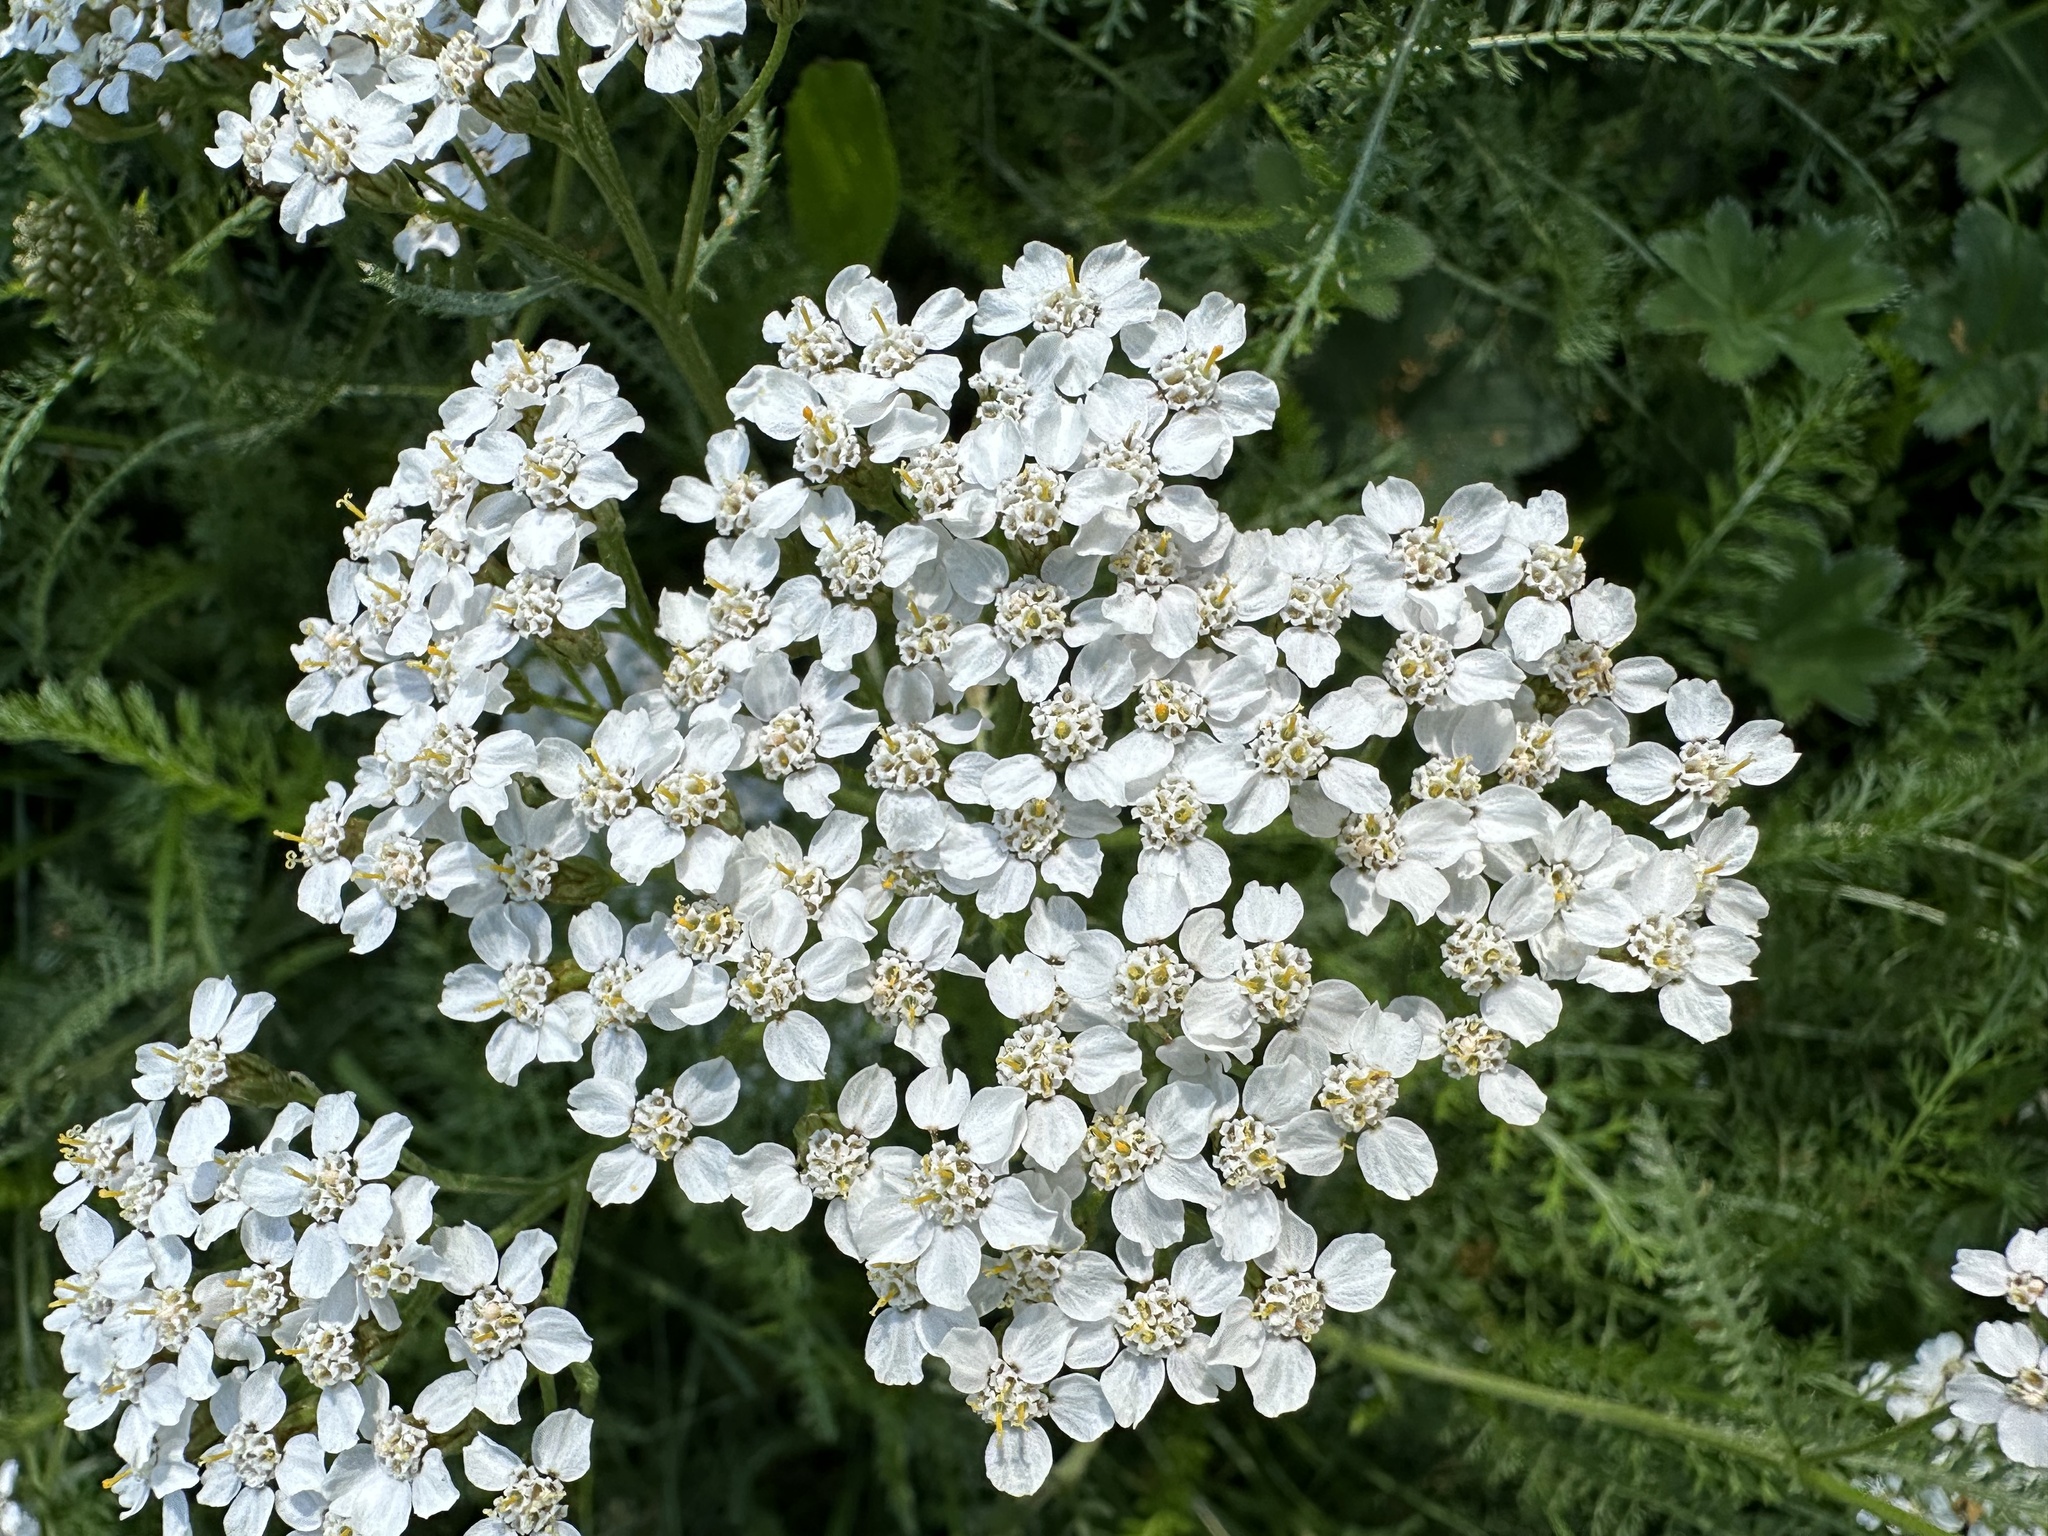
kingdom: Plantae
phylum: Tracheophyta
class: Magnoliopsida
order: Asterales
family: Asteraceae
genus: Achillea
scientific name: Achillea millefolium
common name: Yarrow
